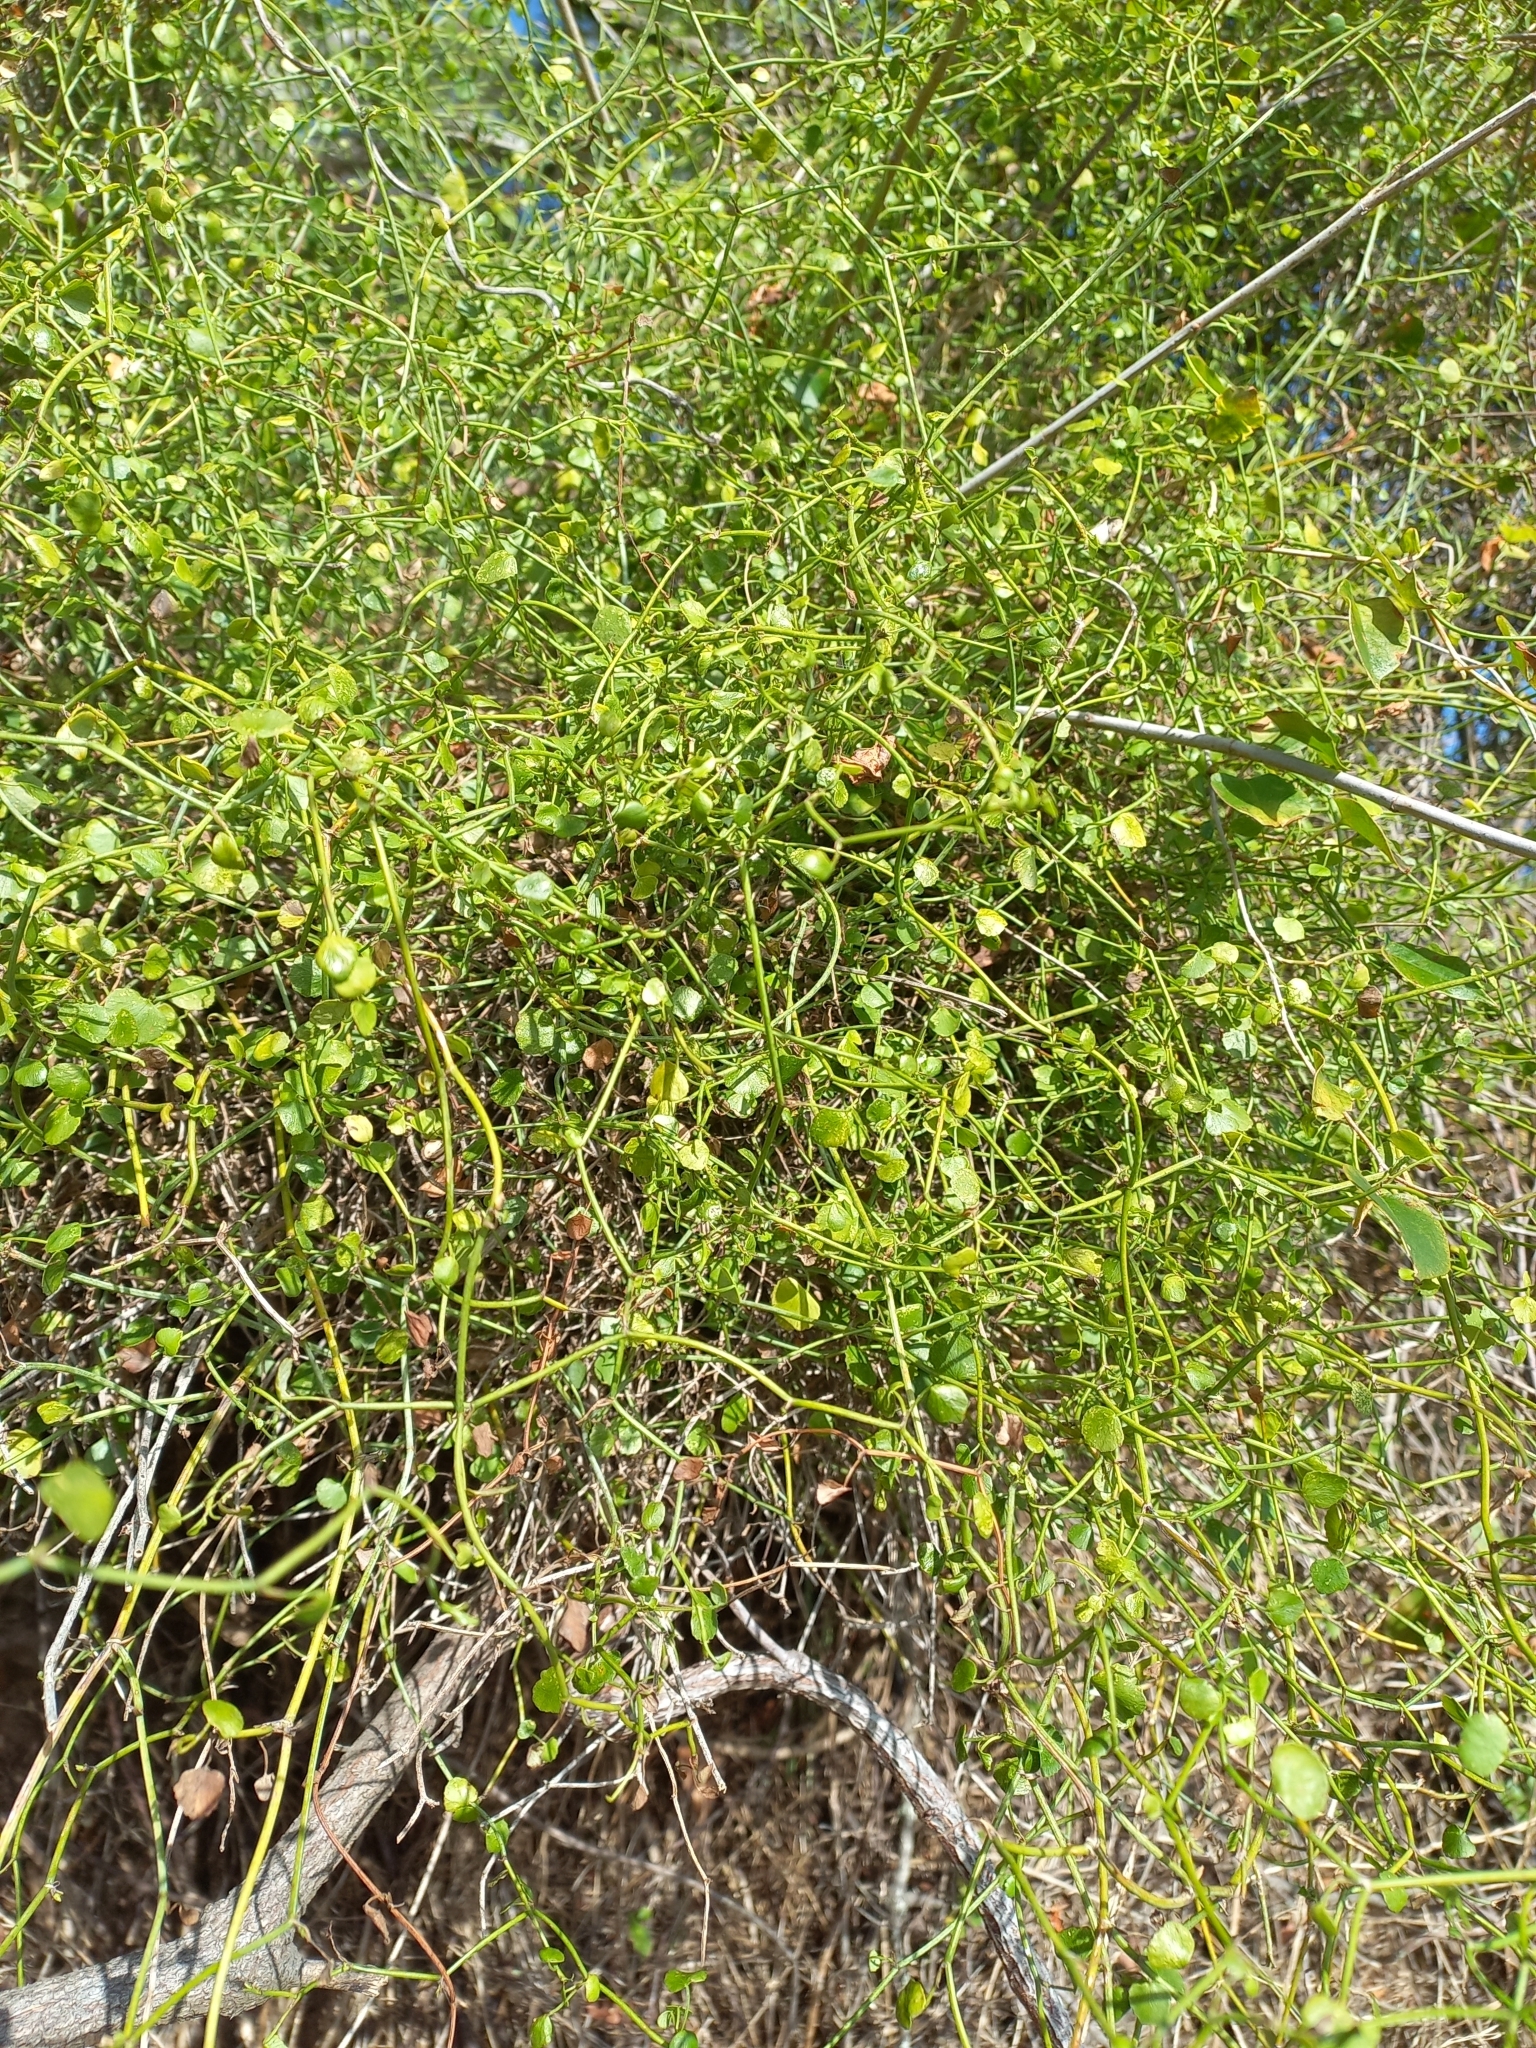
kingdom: Plantae
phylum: Tracheophyta
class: Magnoliopsida
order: Apiales
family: Apiaceae
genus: Scandia
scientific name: Scandia geniculata
